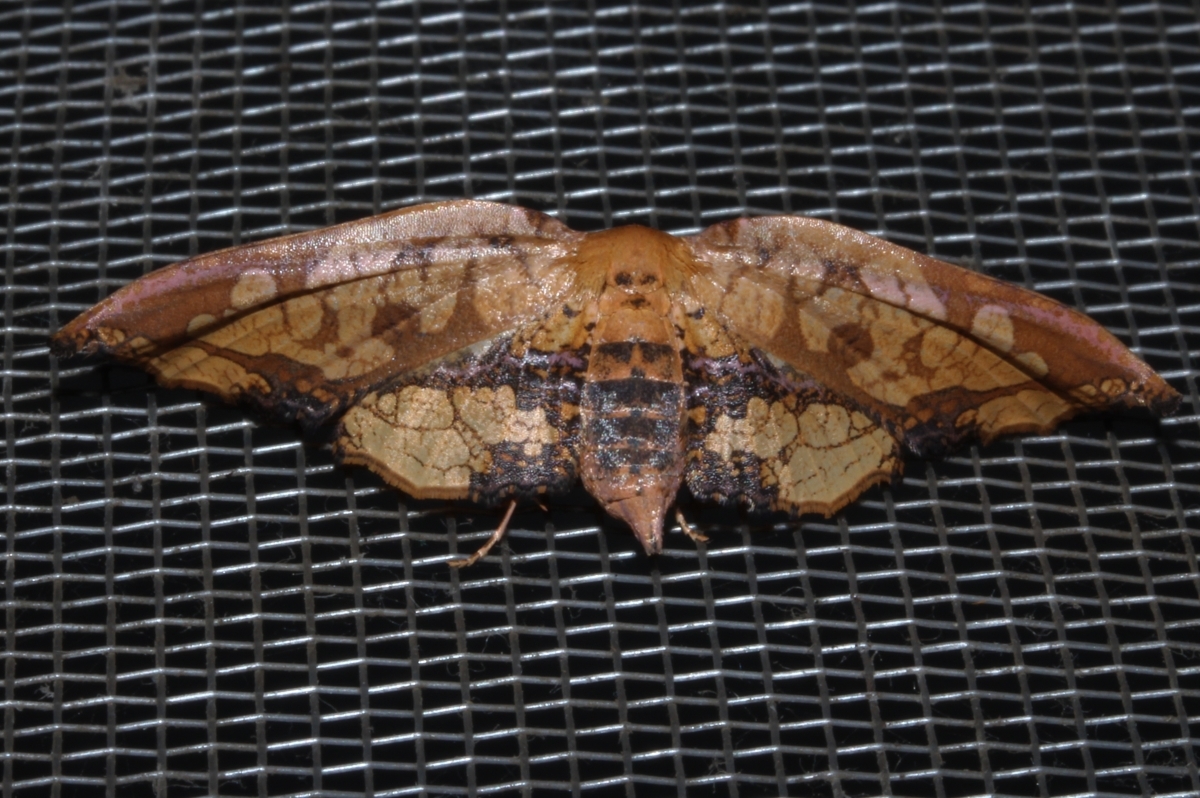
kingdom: Animalia
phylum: Arthropoda
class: Insecta
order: Lepidoptera
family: Thyrididae
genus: Draconia
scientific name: Draconia stenoptila
